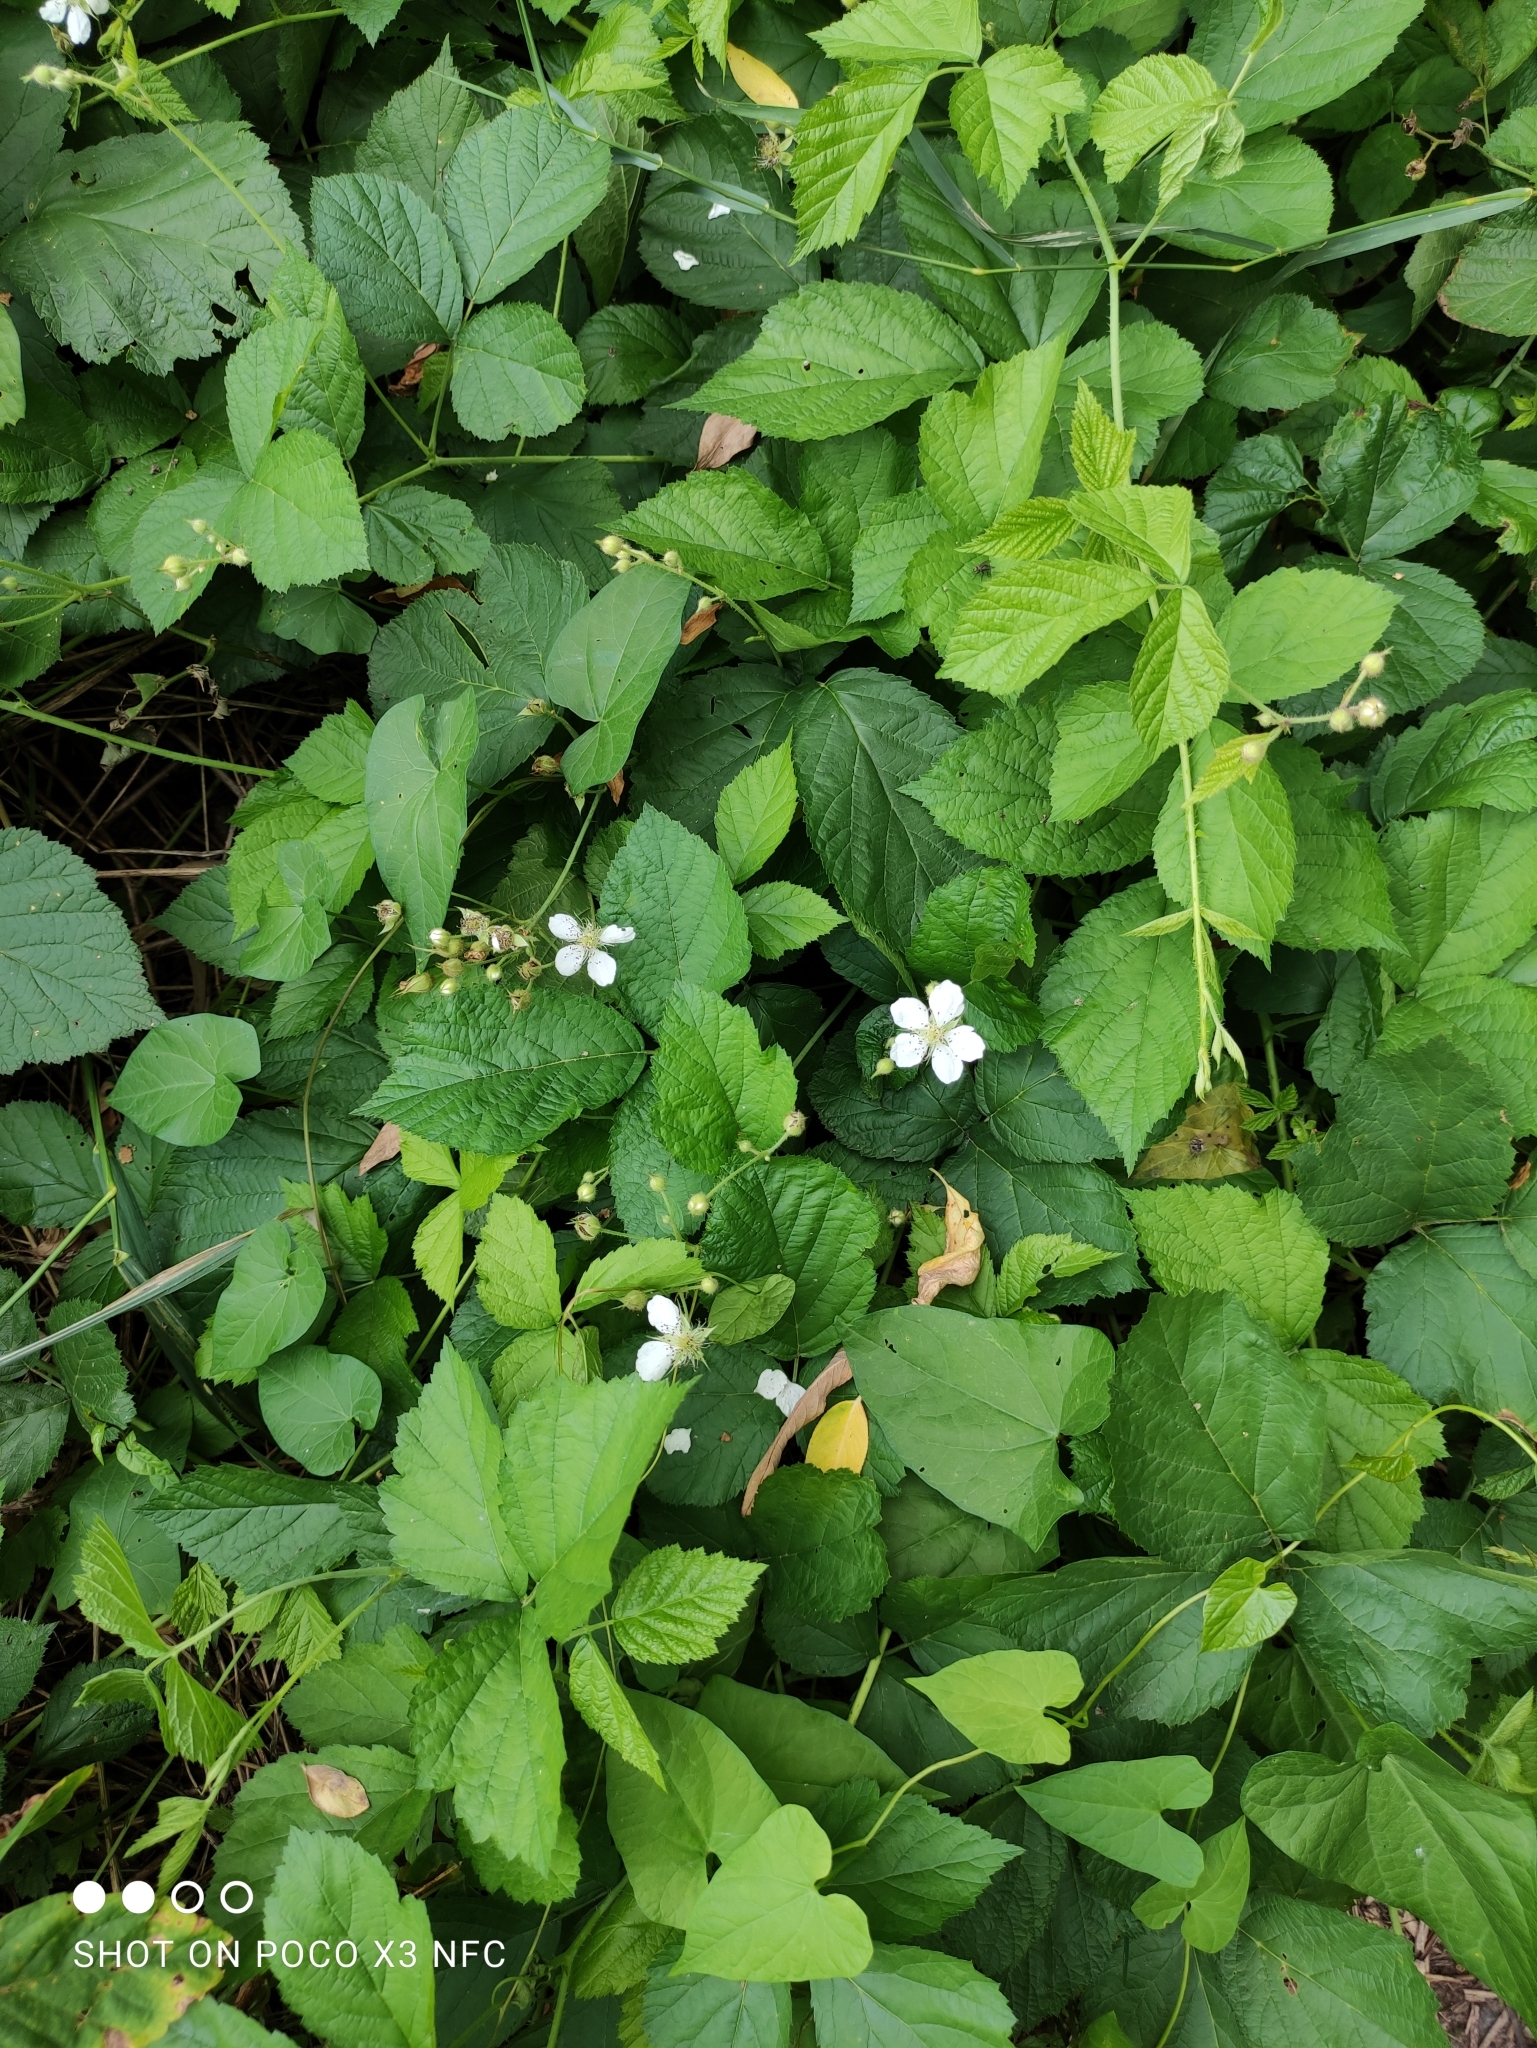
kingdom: Plantae
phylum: Tracheophyta
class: Magnoliopsida
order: Rosales
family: Rosaceae
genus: Rubus
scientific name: Rubus caesius
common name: Dewberry
